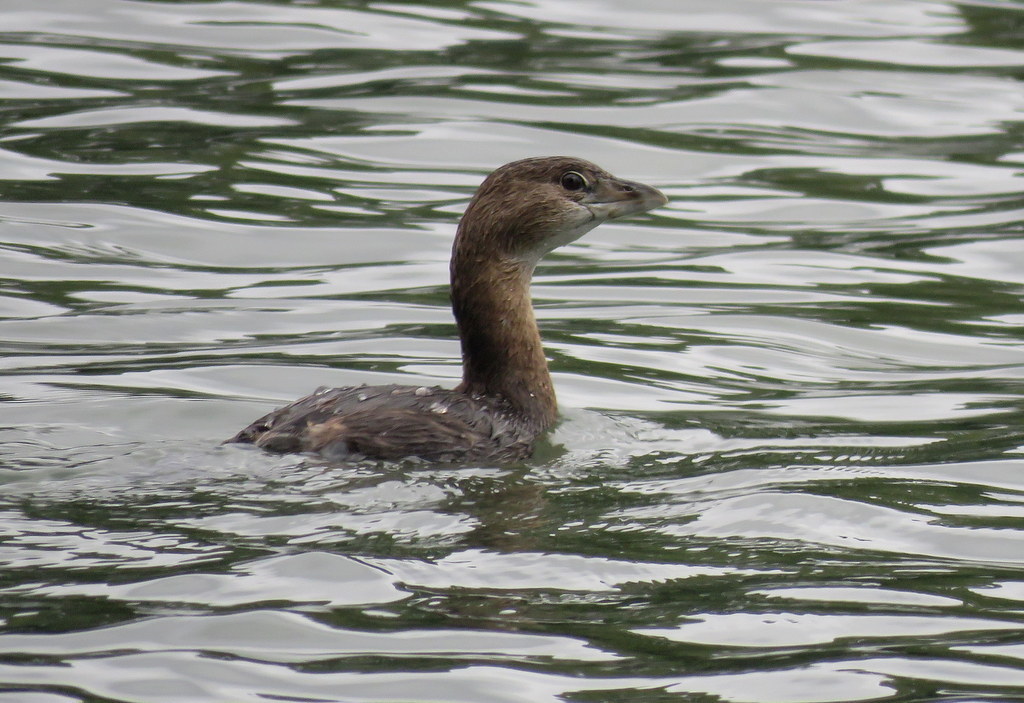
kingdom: Animalia
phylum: Chordata
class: Aves
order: Podicipediformes
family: Podicipedidae
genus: Podilymbus
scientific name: Podilymbus podiceps
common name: Pied-billed grebe
